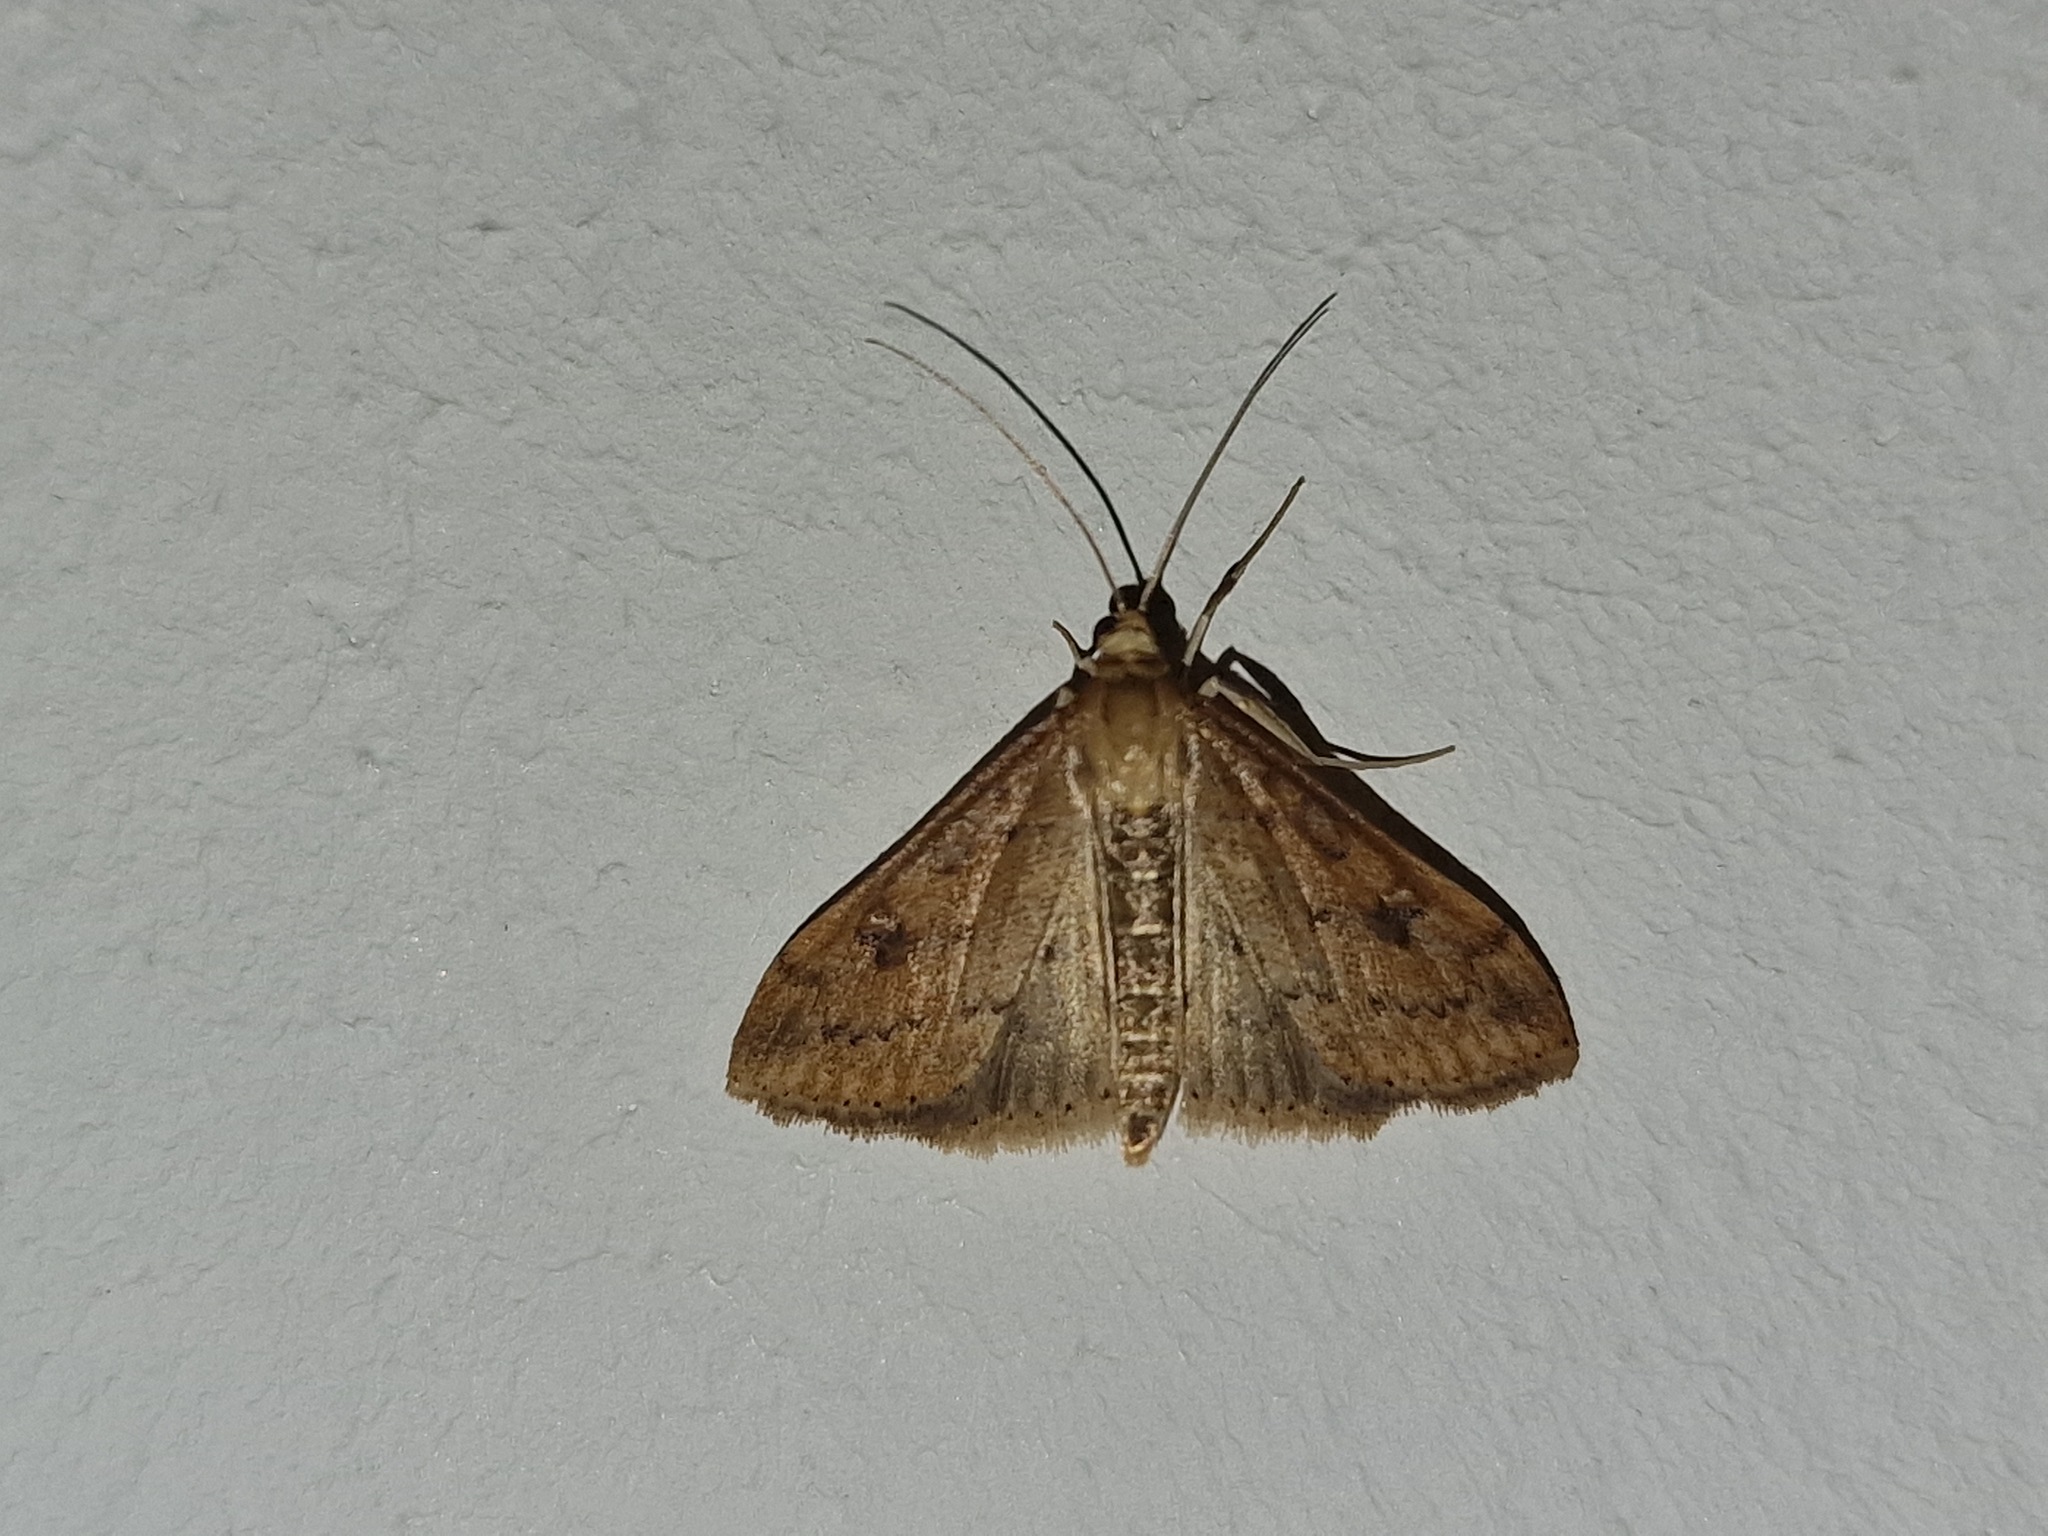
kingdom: Animalia
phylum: Arthropoda
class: Insecta
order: Lepidoptera
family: Crambidae
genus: Udea
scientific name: Udea ferrugalis
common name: Rusty dot
